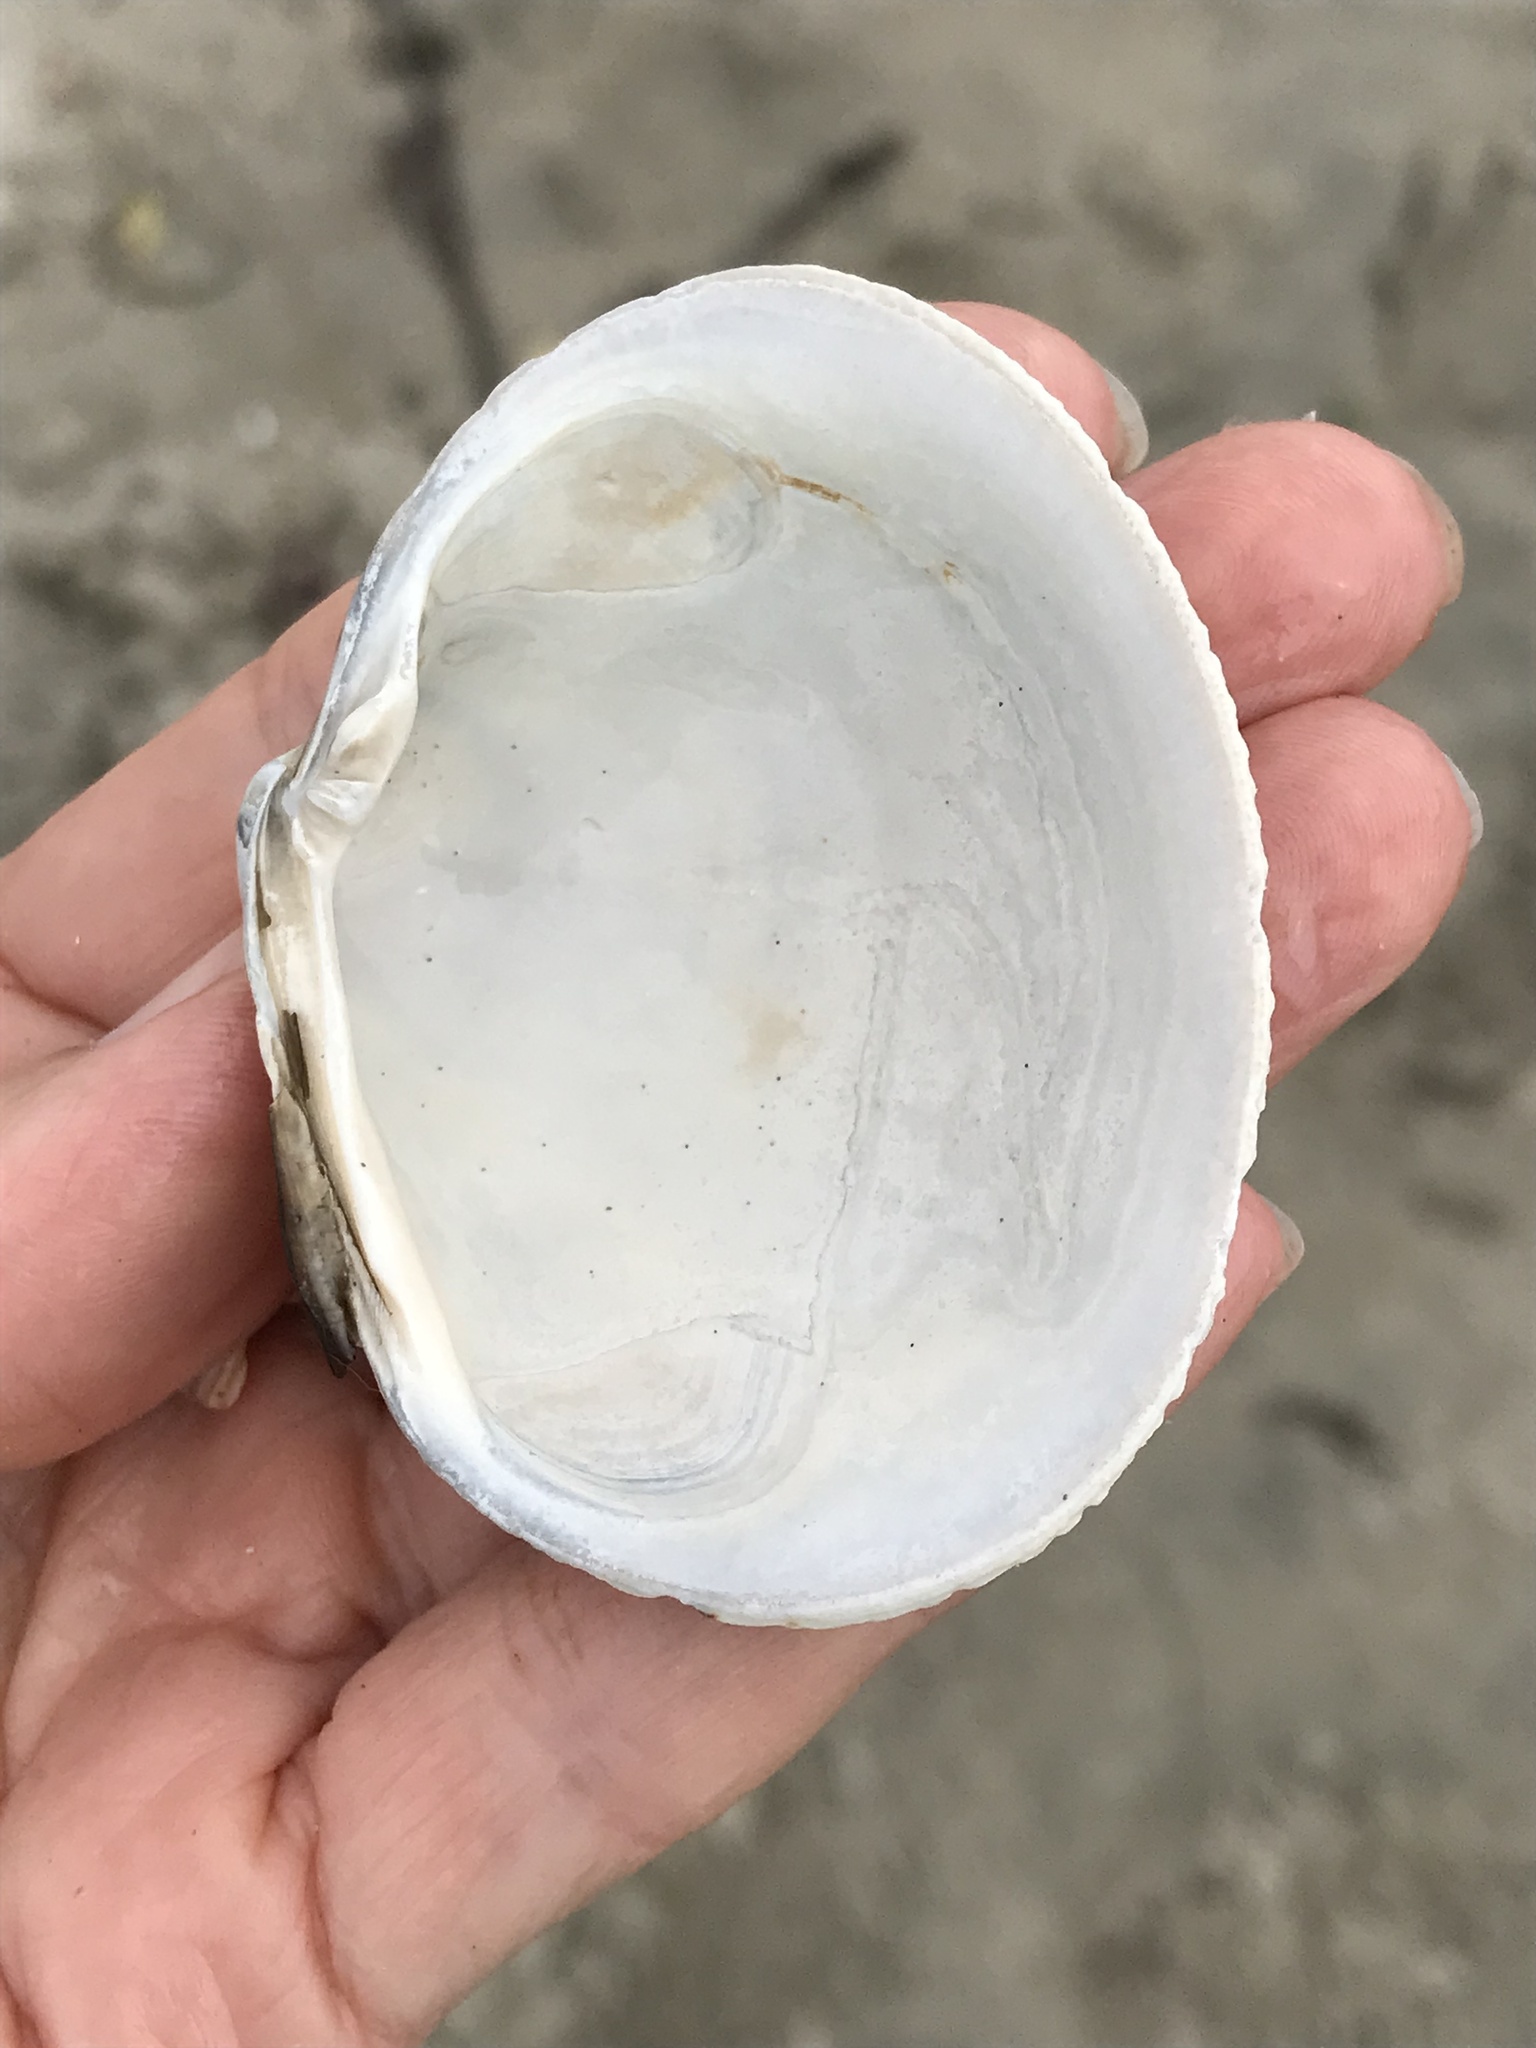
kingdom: Animalia
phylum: Mollusca
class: Bivalvia
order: Venerida
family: Veneridae
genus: Leukoma
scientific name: Leukoma staminea
